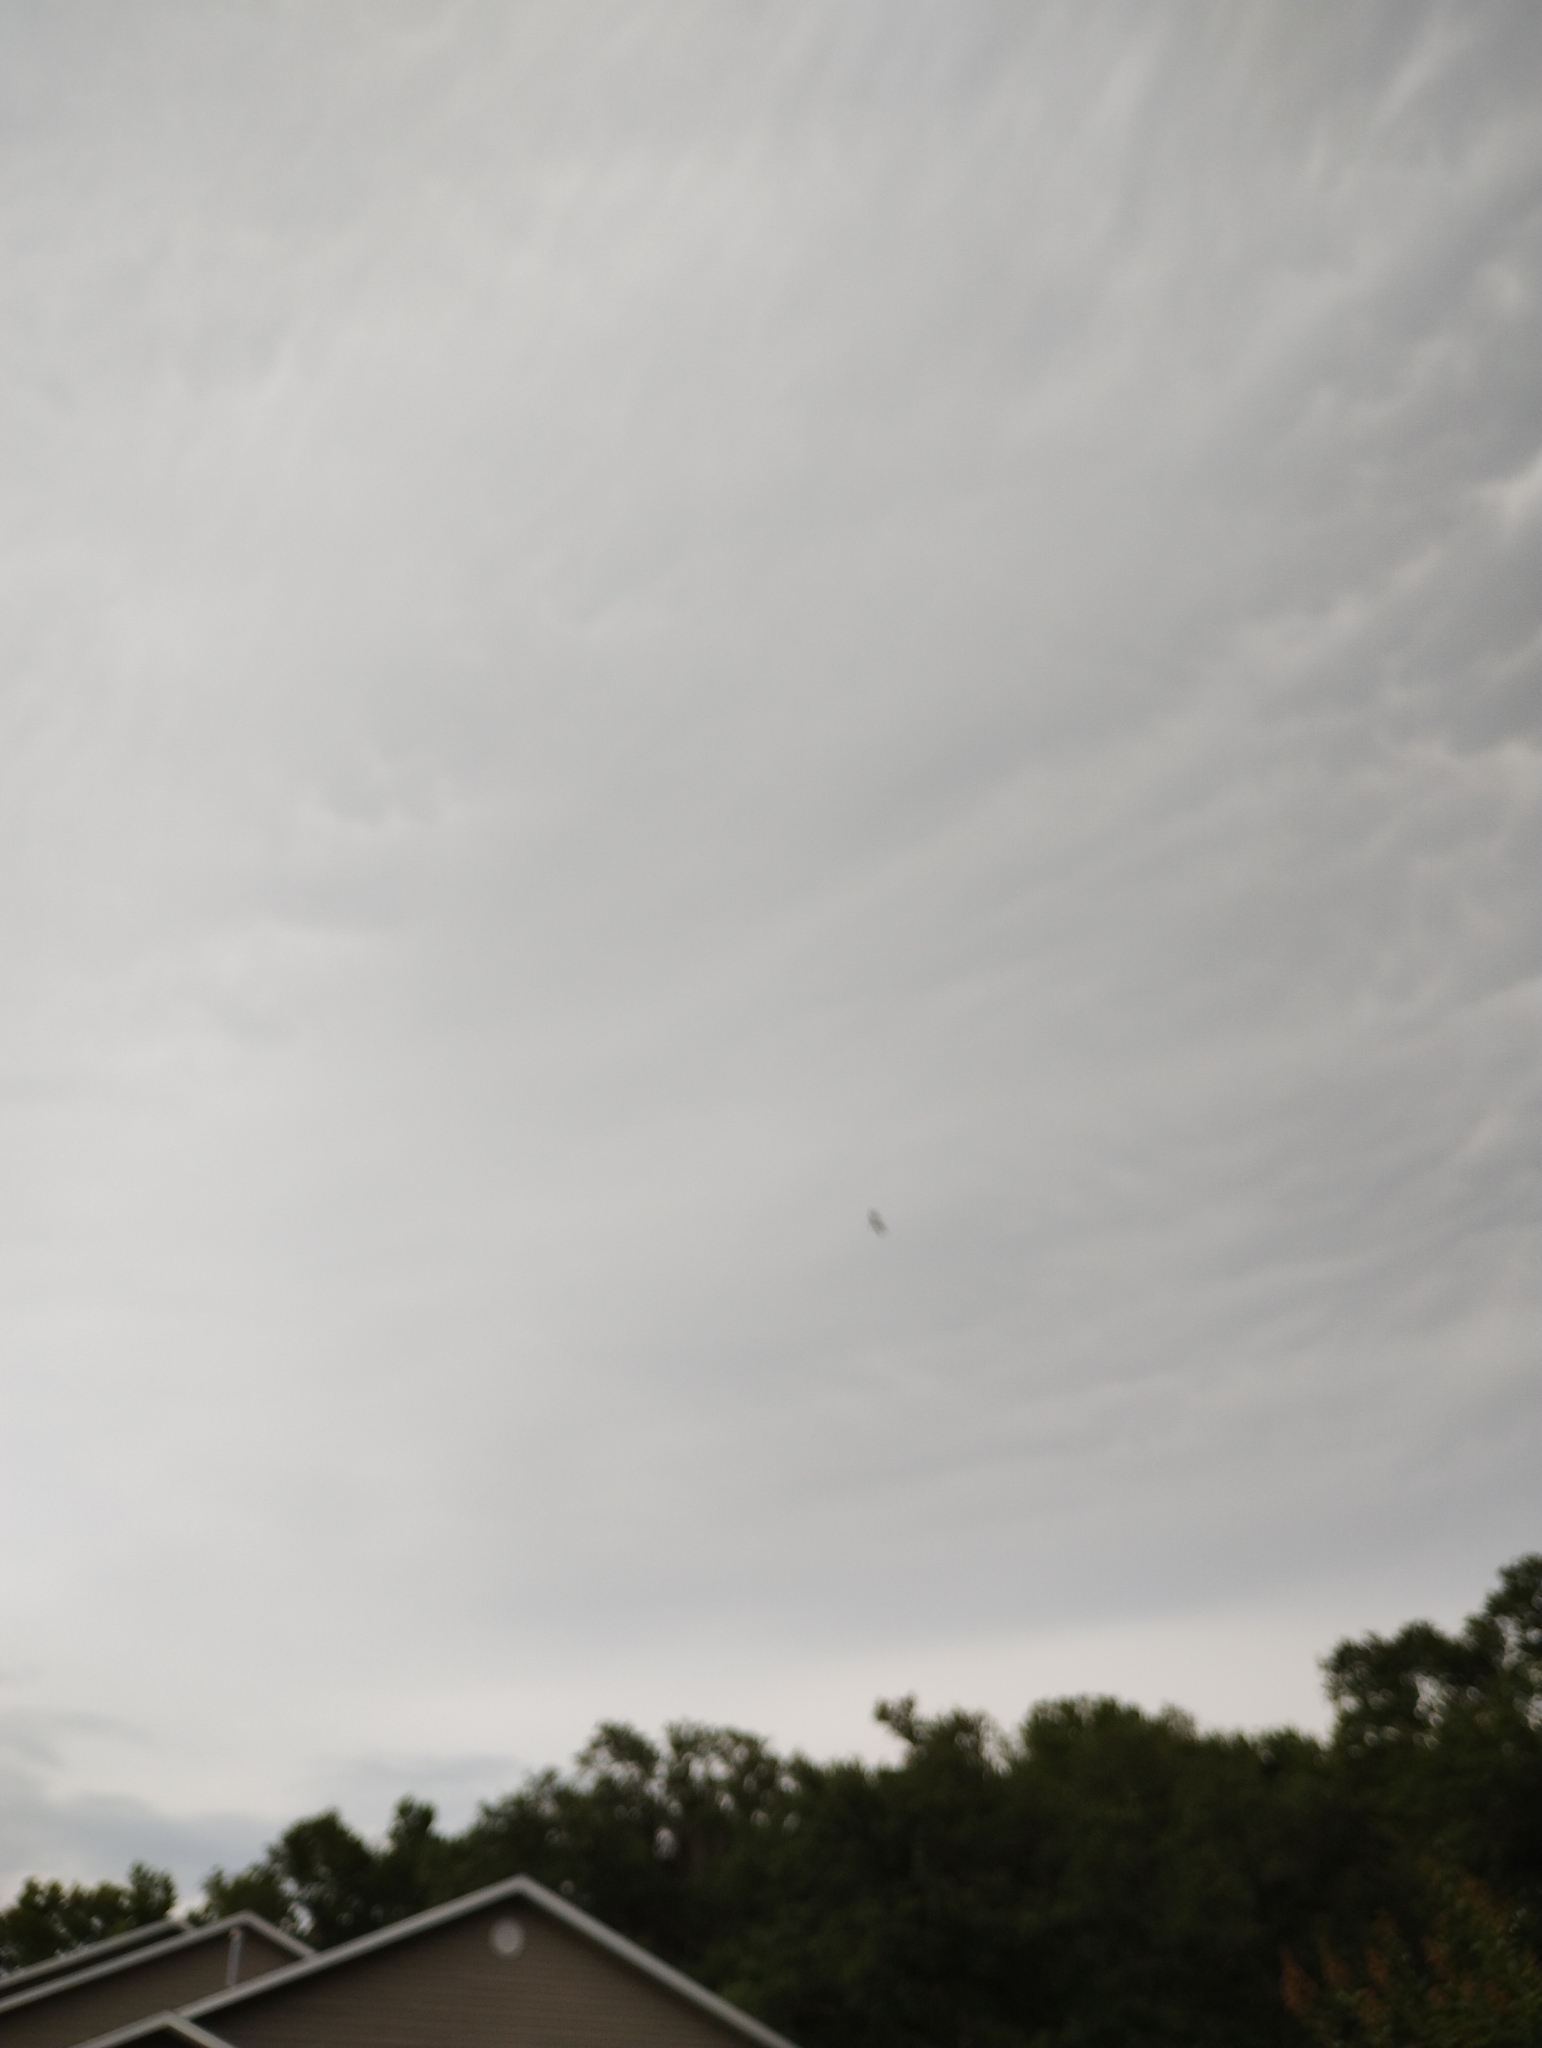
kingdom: Animalia
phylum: Chordata
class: Aves
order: Accipitriformes
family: Accipitridae
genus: Elanoides
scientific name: Elanoides forficatus
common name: Swallow-tailed kite
